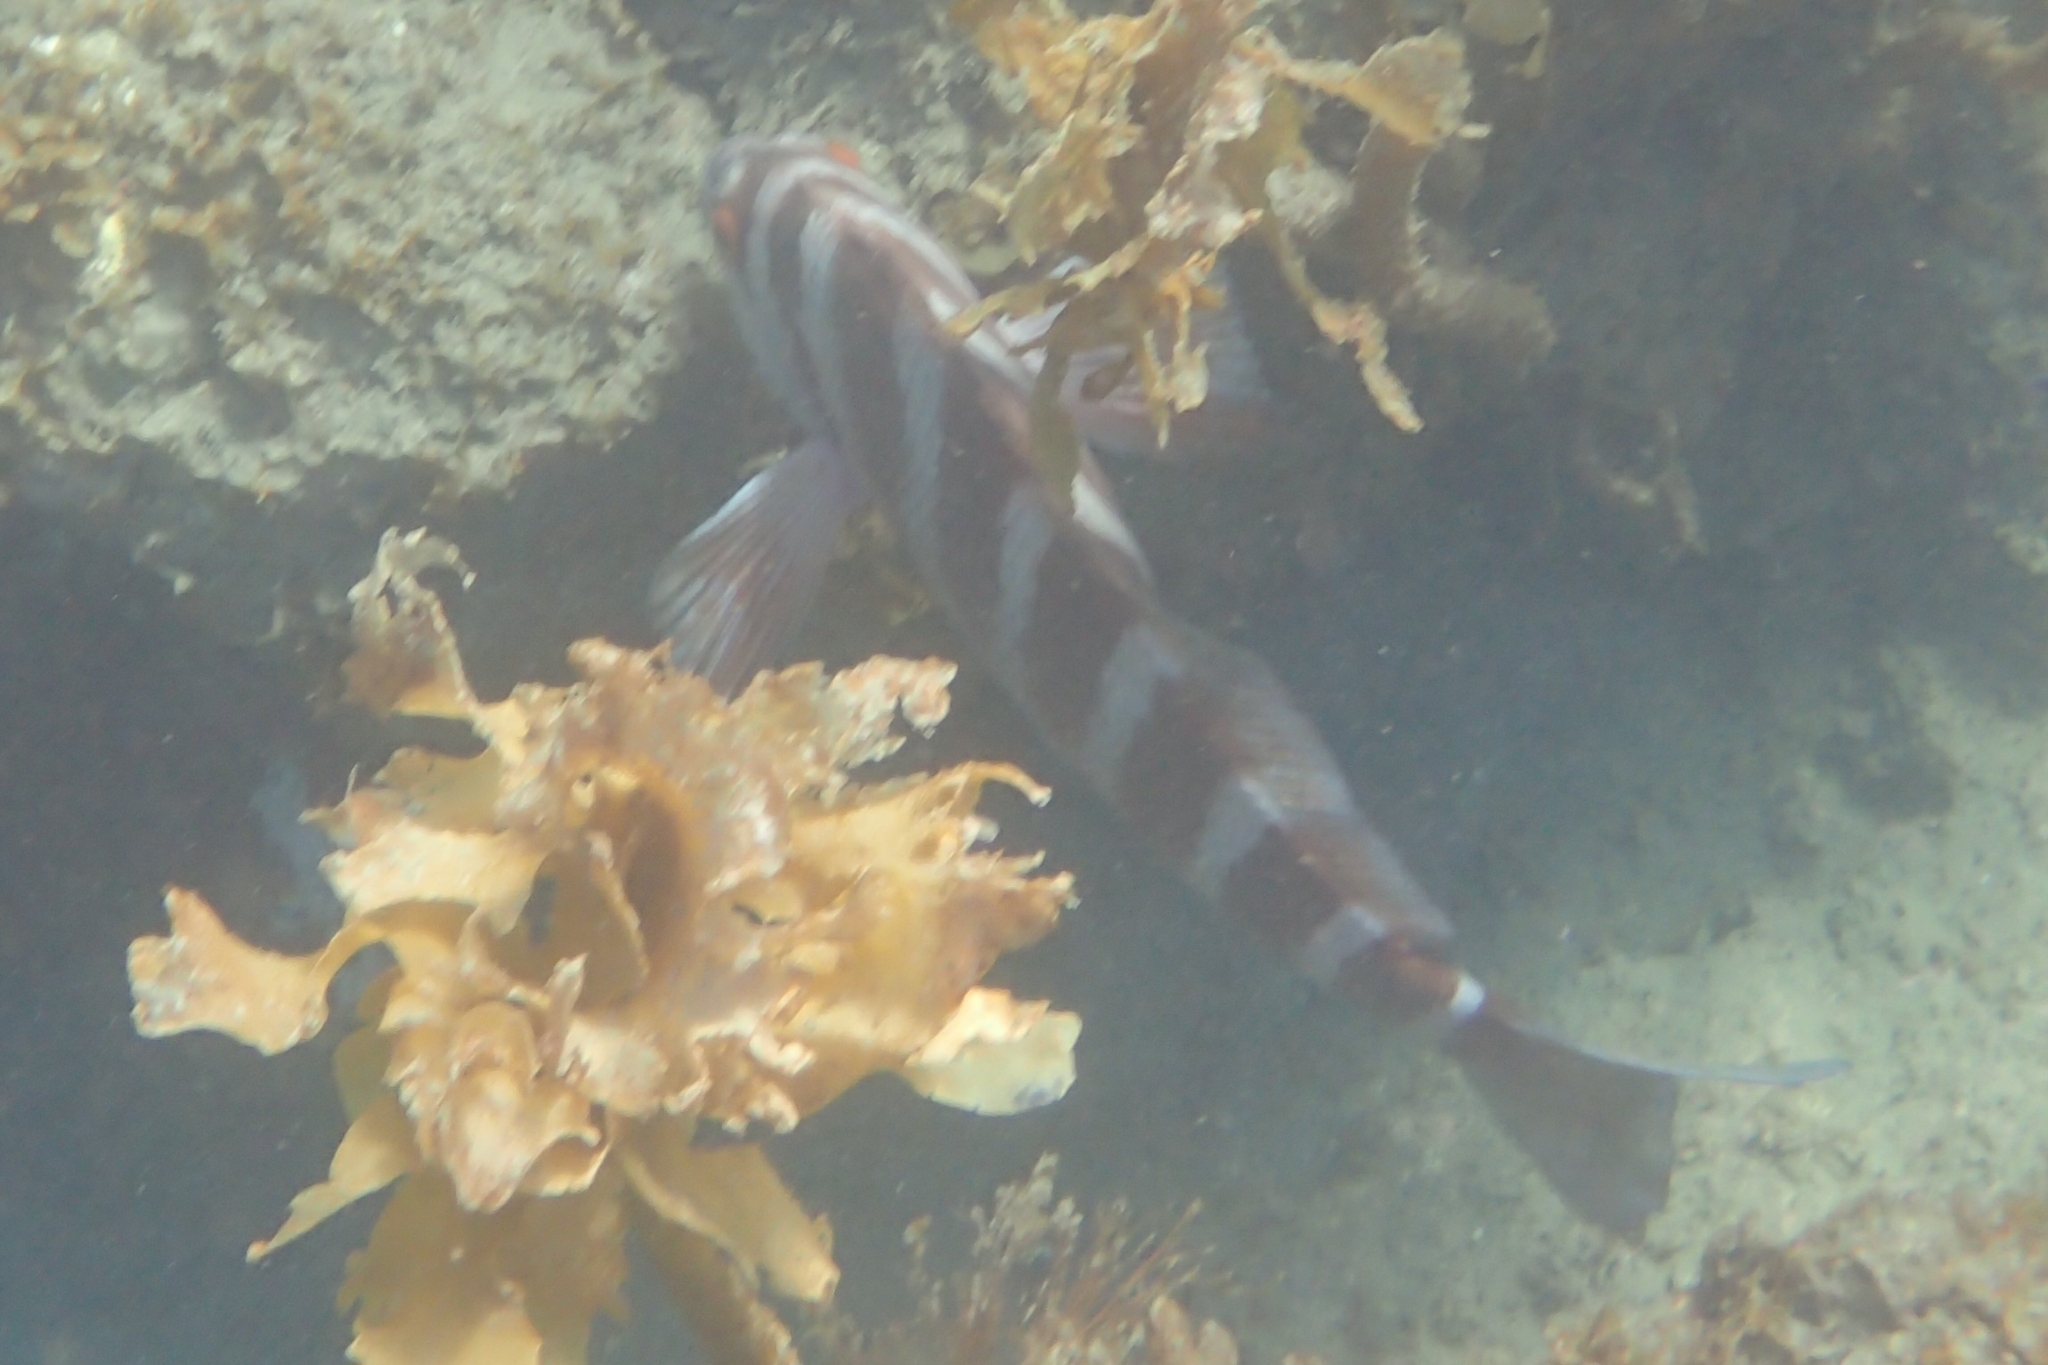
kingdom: Animalia
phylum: Chordata
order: Perciformes
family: Cheilodactylidae
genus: Cheilodactylus
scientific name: Cheilodactylus spectabilis
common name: Red moki
